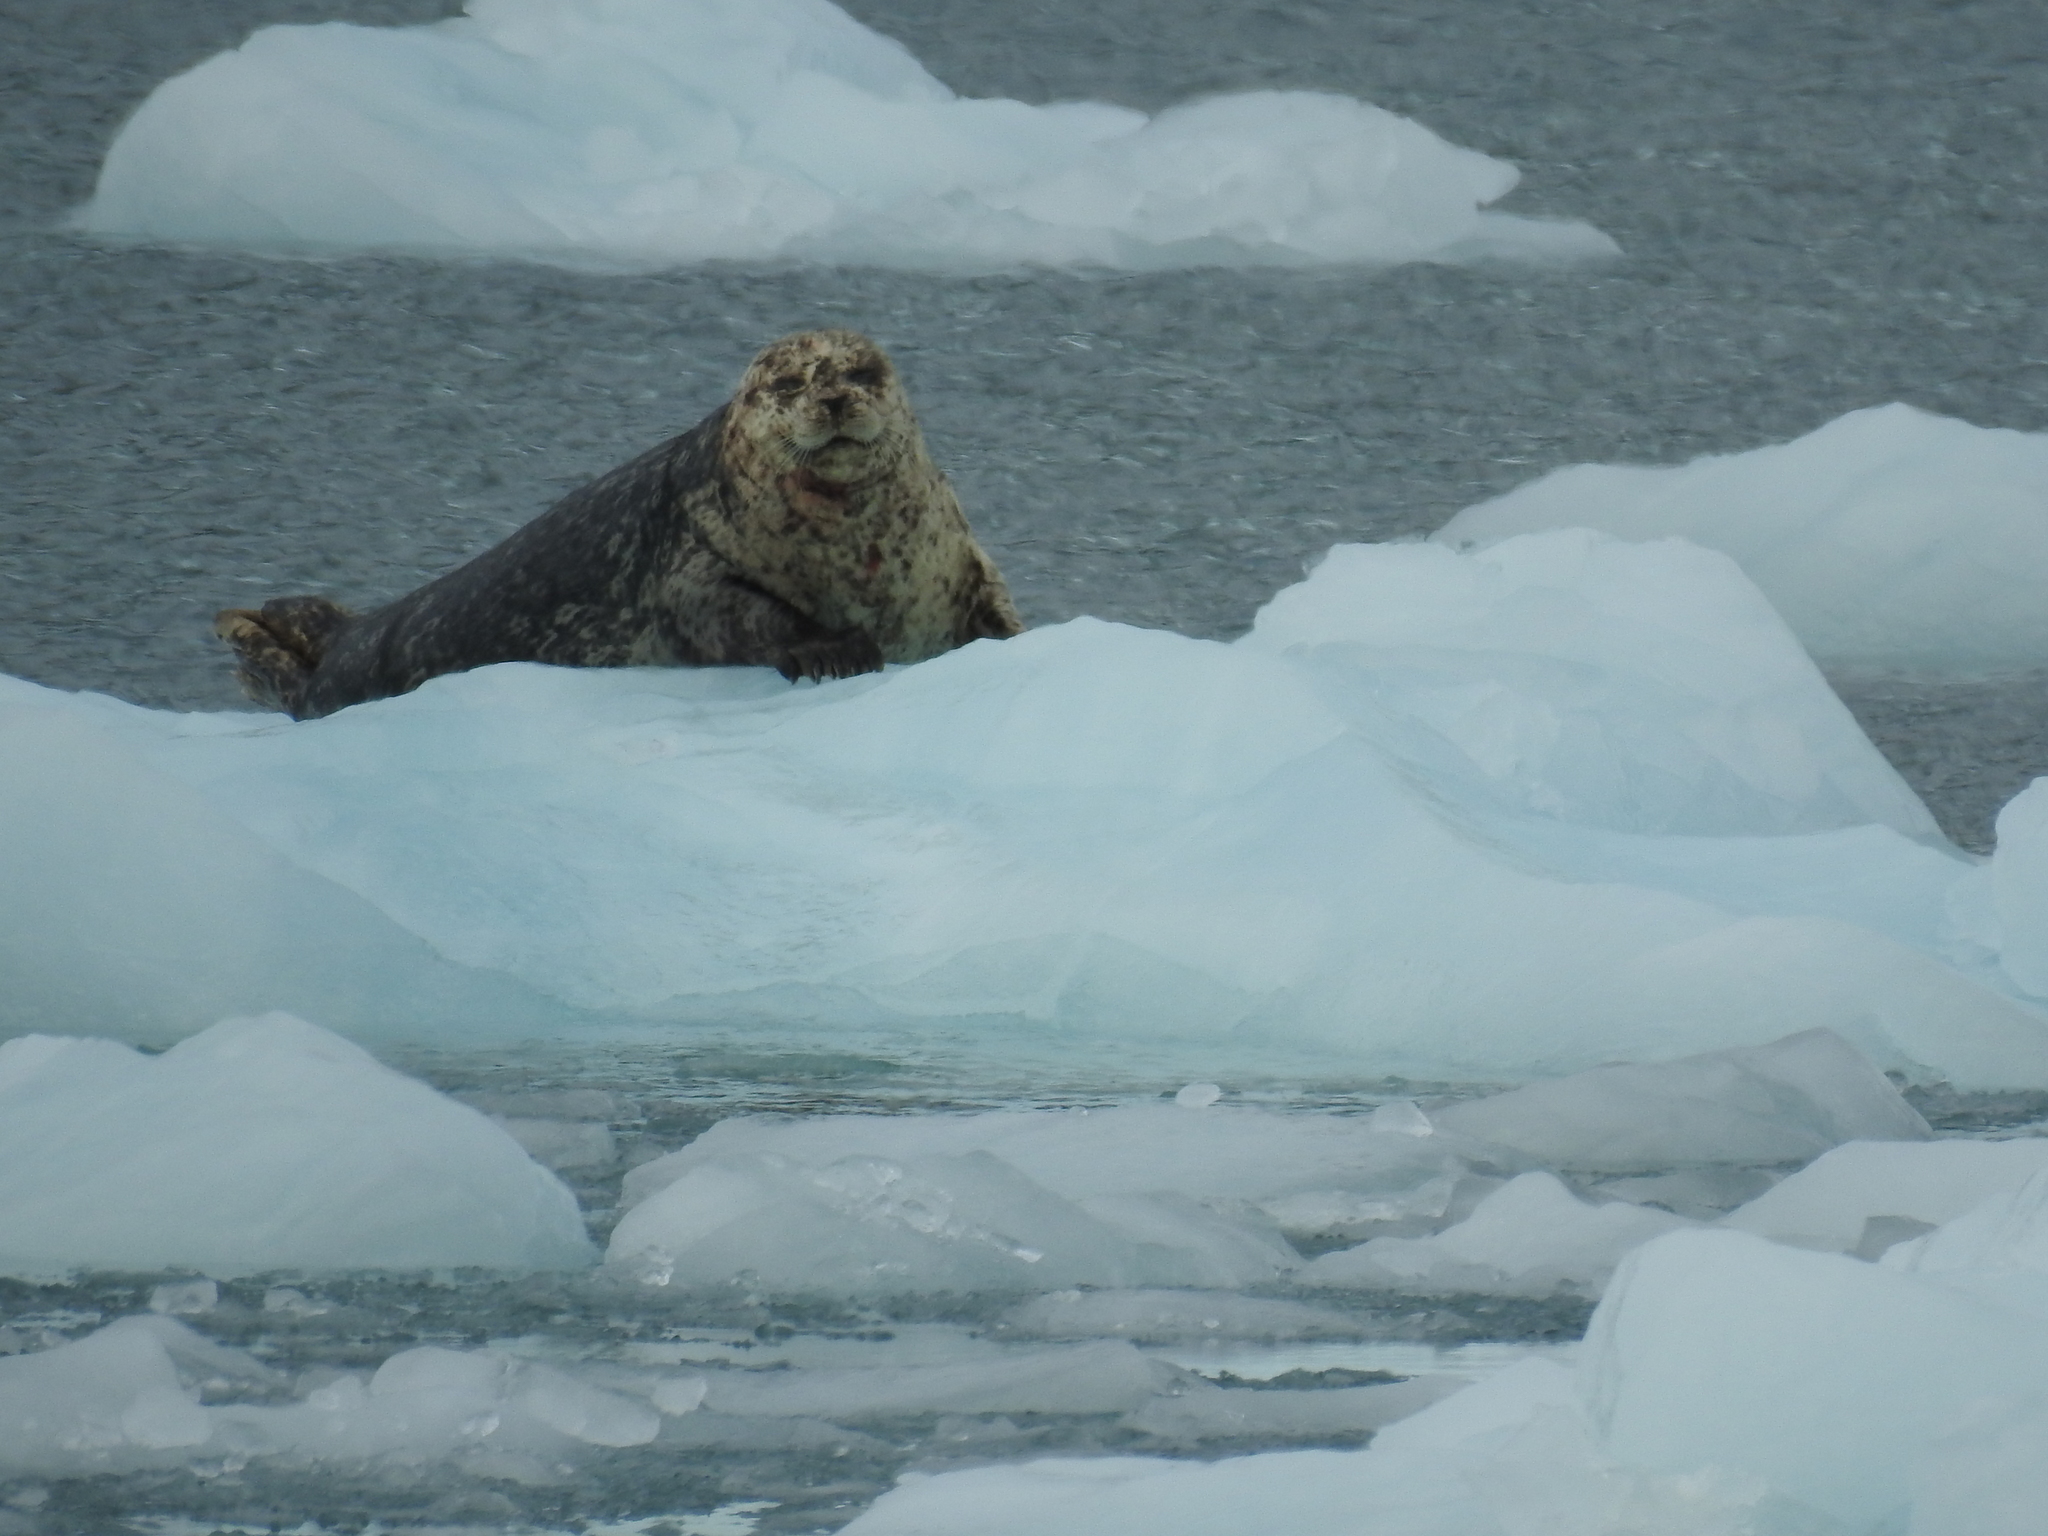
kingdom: Animalia
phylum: Chordata
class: Mammalia
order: Carnivora
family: Phocidae
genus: Phoca
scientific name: Phoca vitulina
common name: Harbor seal
